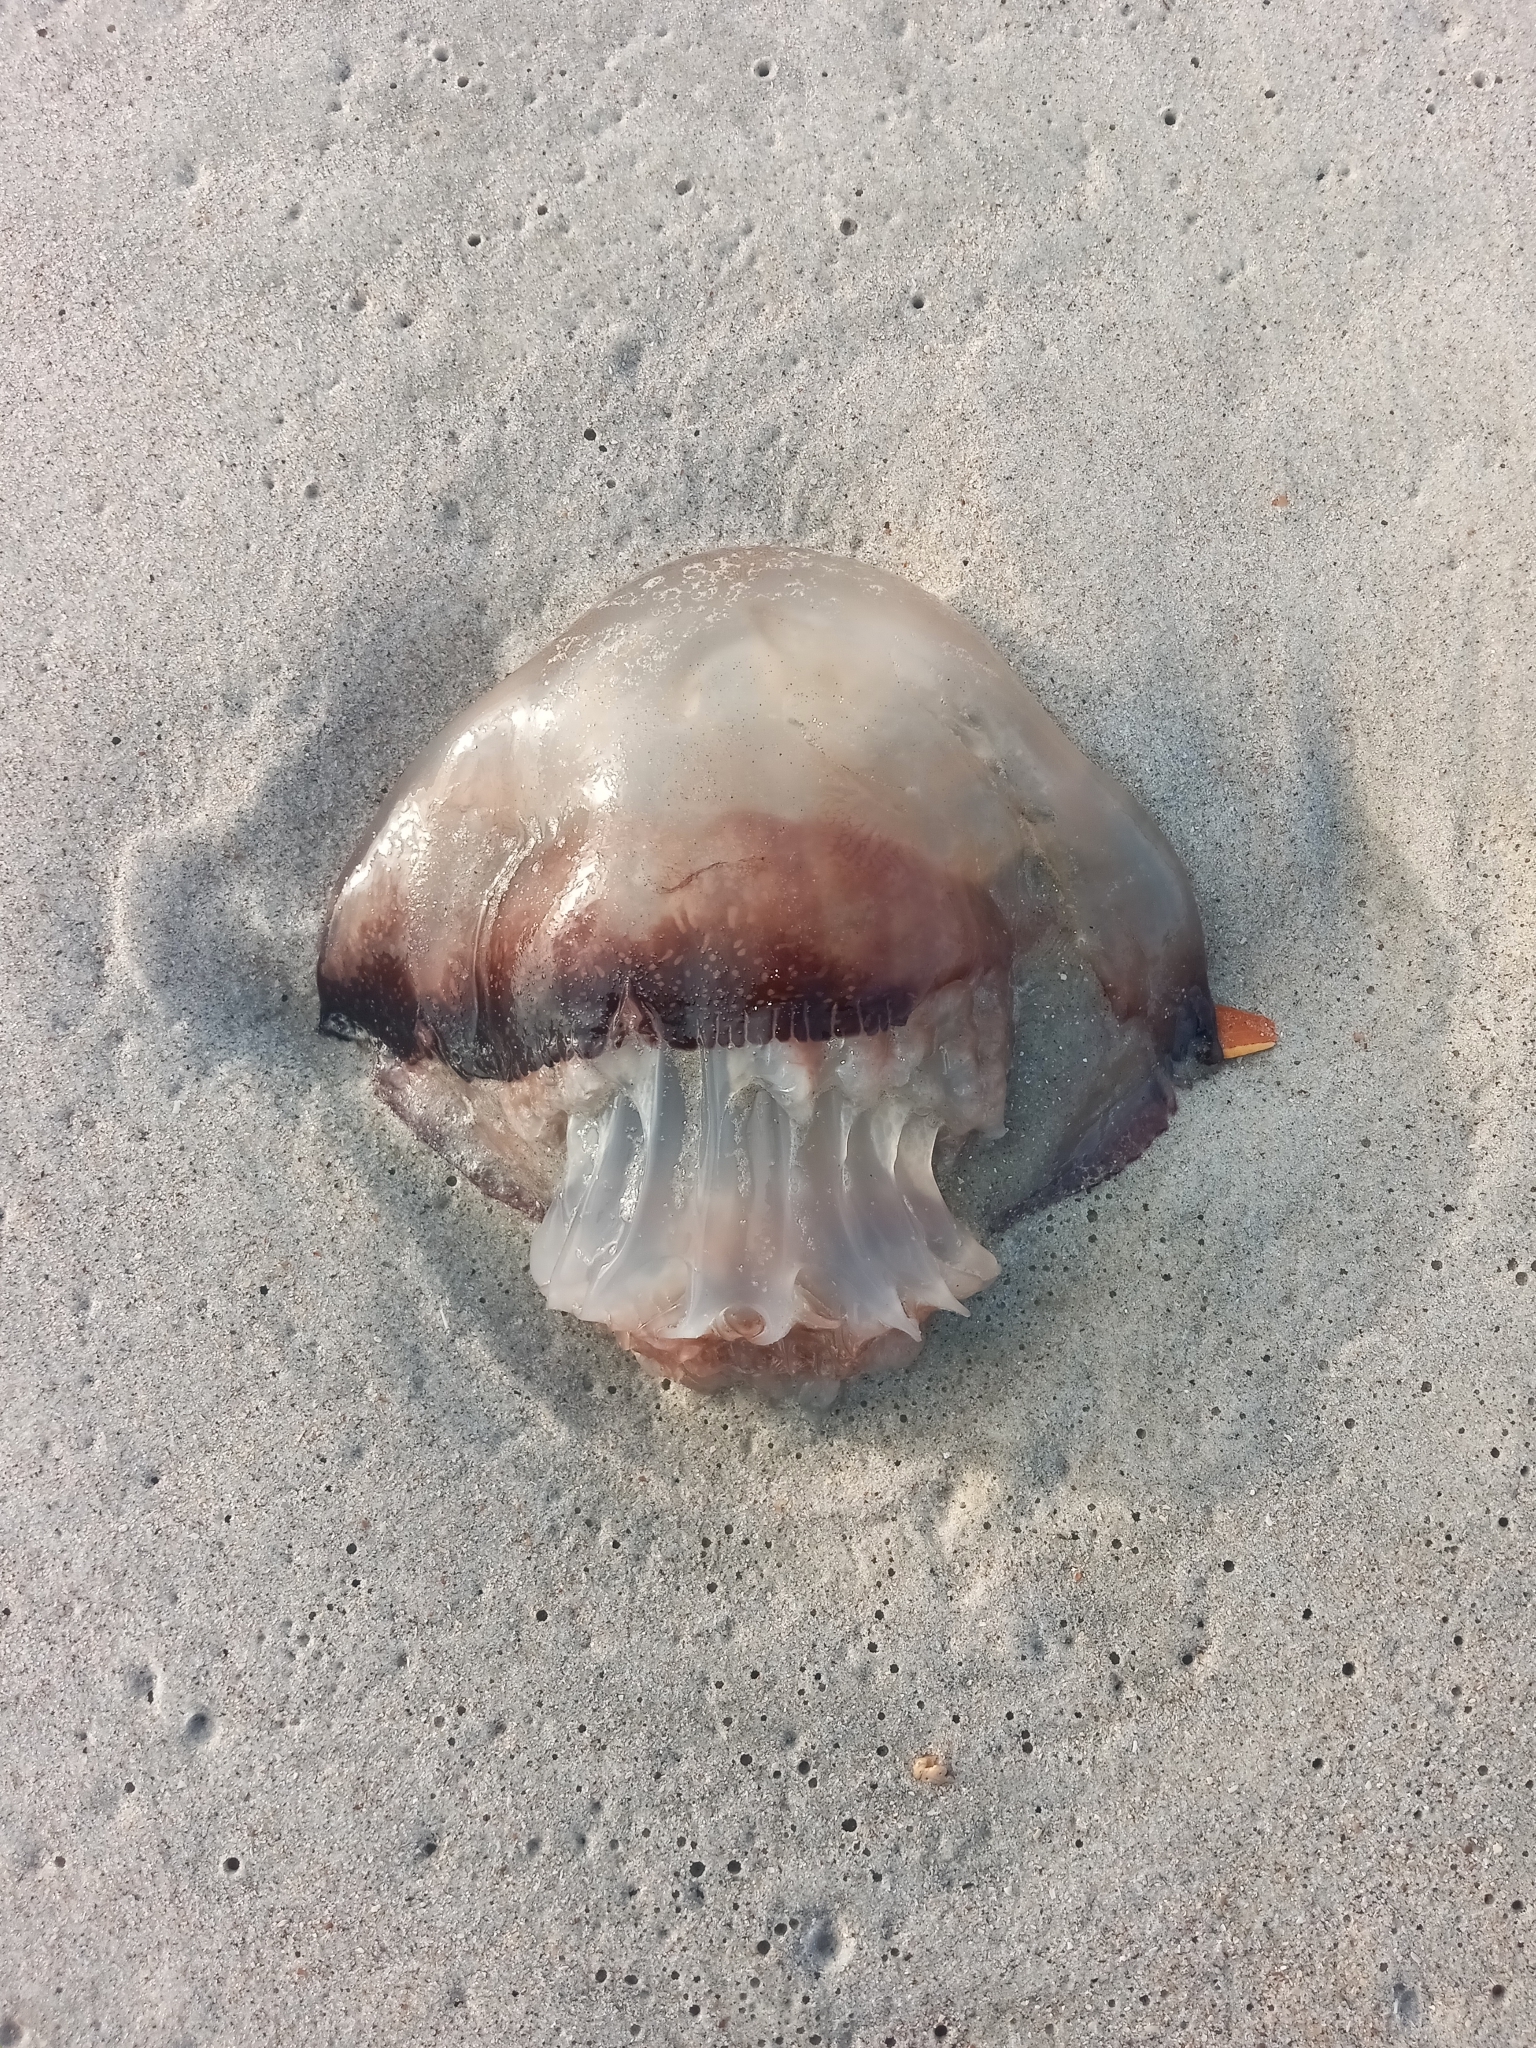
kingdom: Animalia
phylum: Cnidaria
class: Scyphozoa
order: Rhizostomeae
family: Stomolophidae
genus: Stomolophus
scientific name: Stomolophus meleagris
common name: Cabbagehead
